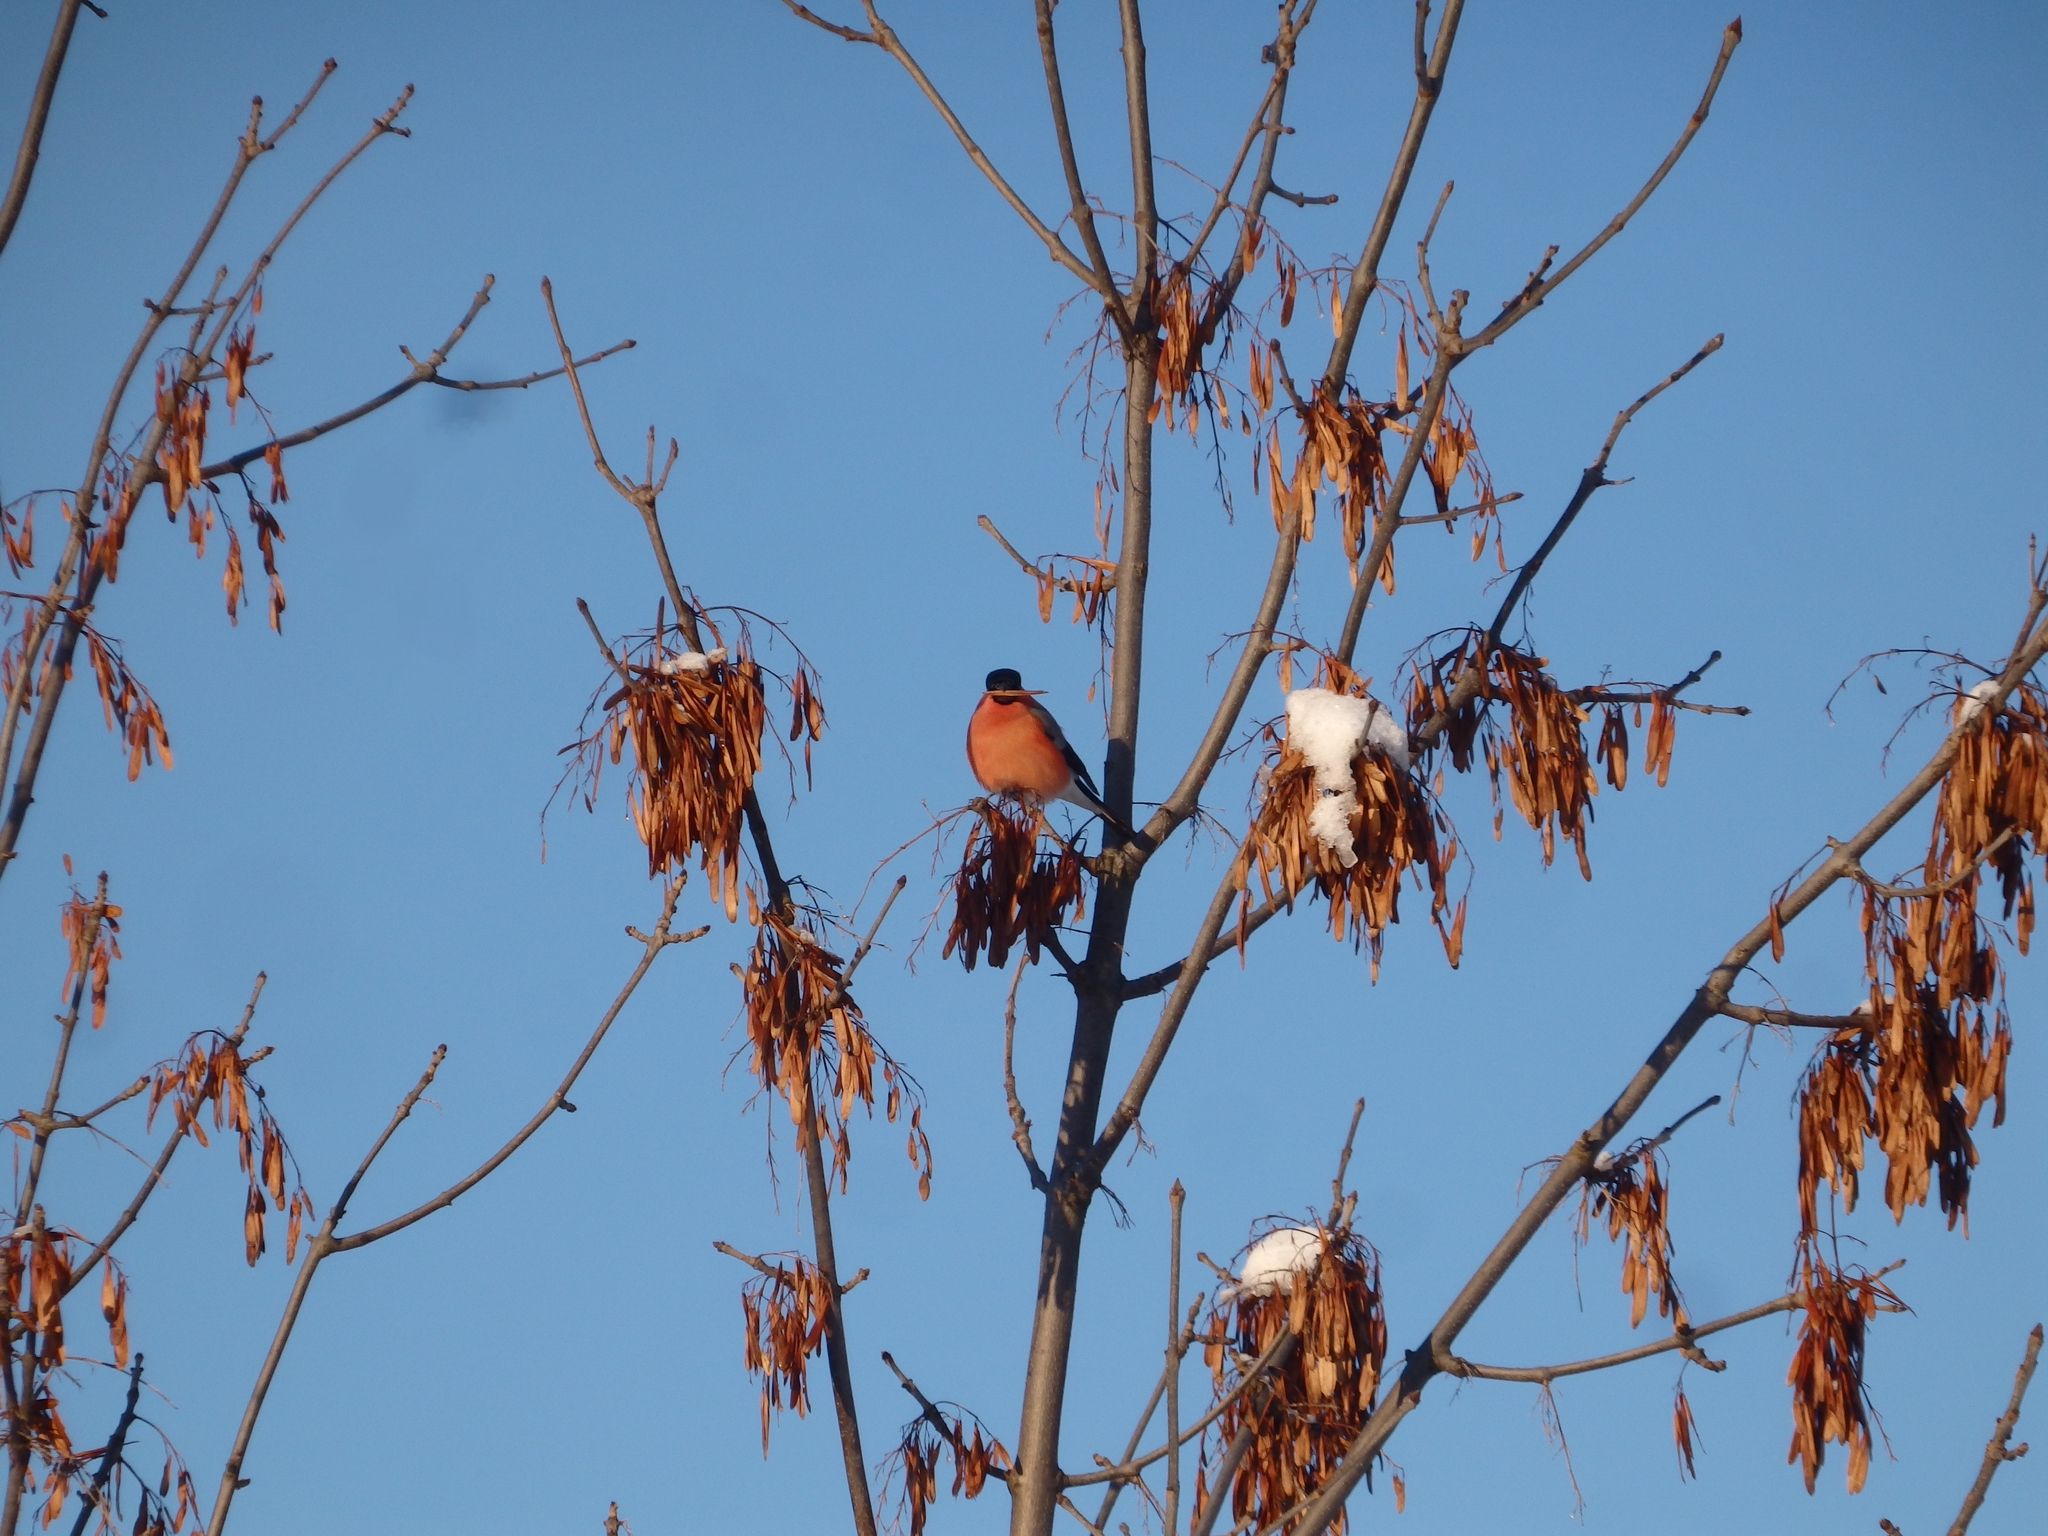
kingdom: Animalia
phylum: Chordata
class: Aves
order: Passeriformes
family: Fringillidae
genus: Pyrrhula
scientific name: Pyrrhula pyrrhula
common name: Eurasian bullfinch
